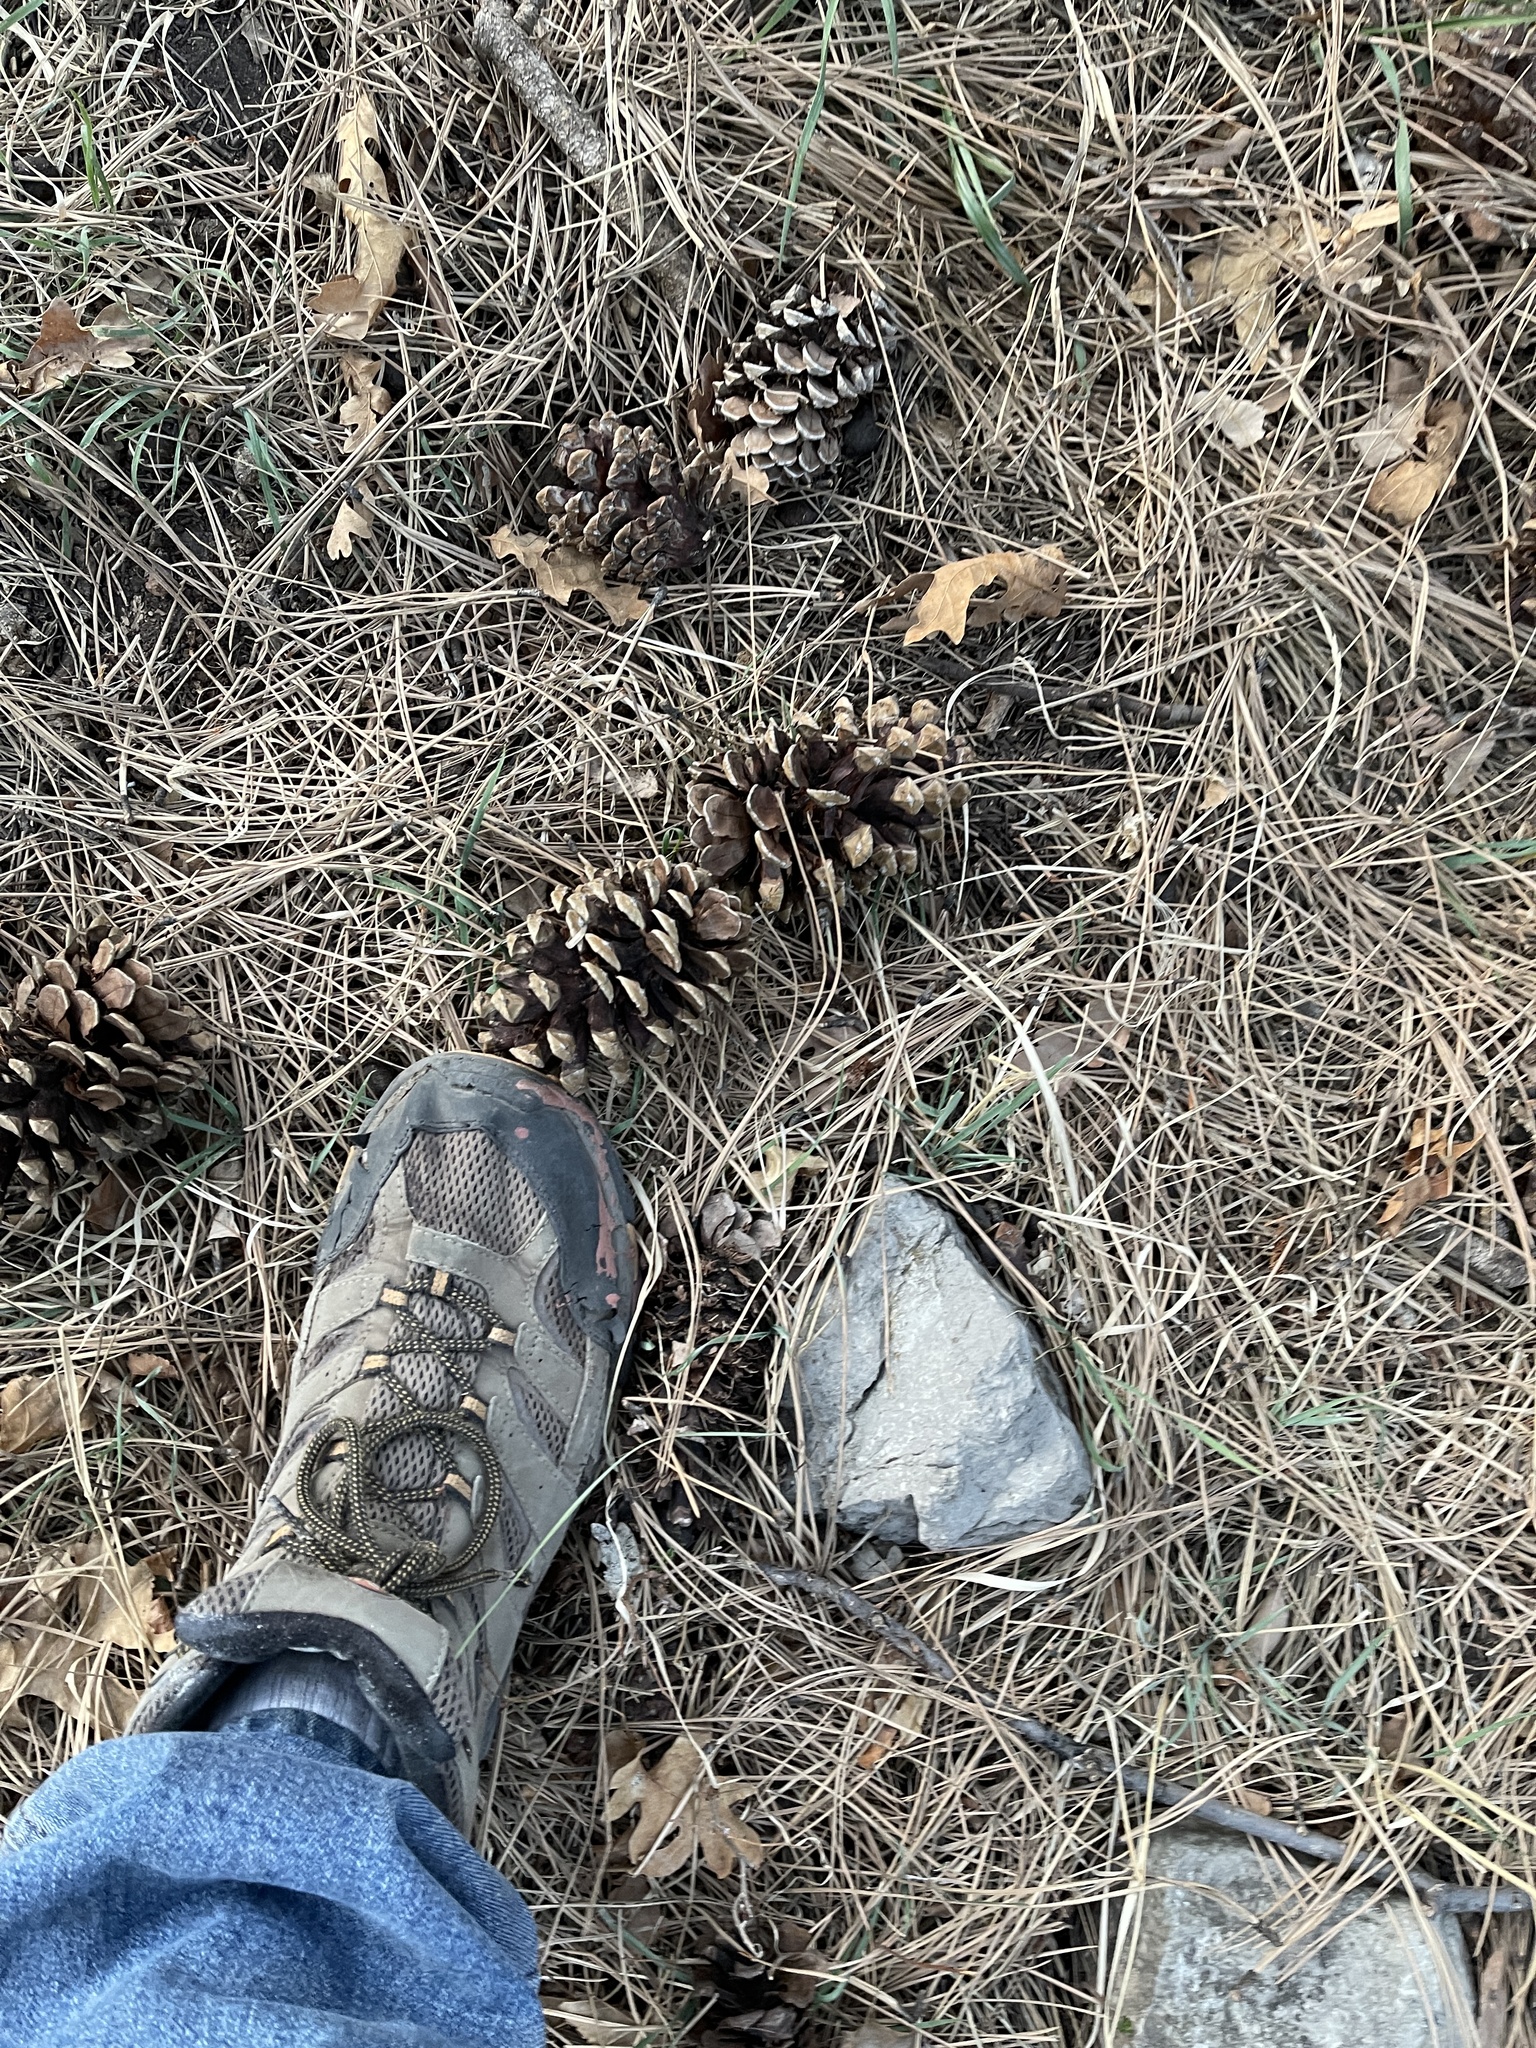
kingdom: Plantae
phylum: Tracheophyta
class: Pinopsida
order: Pinales
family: Pinaceae
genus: Pinus
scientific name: Pinus ponderosa
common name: Western yellow-pine
